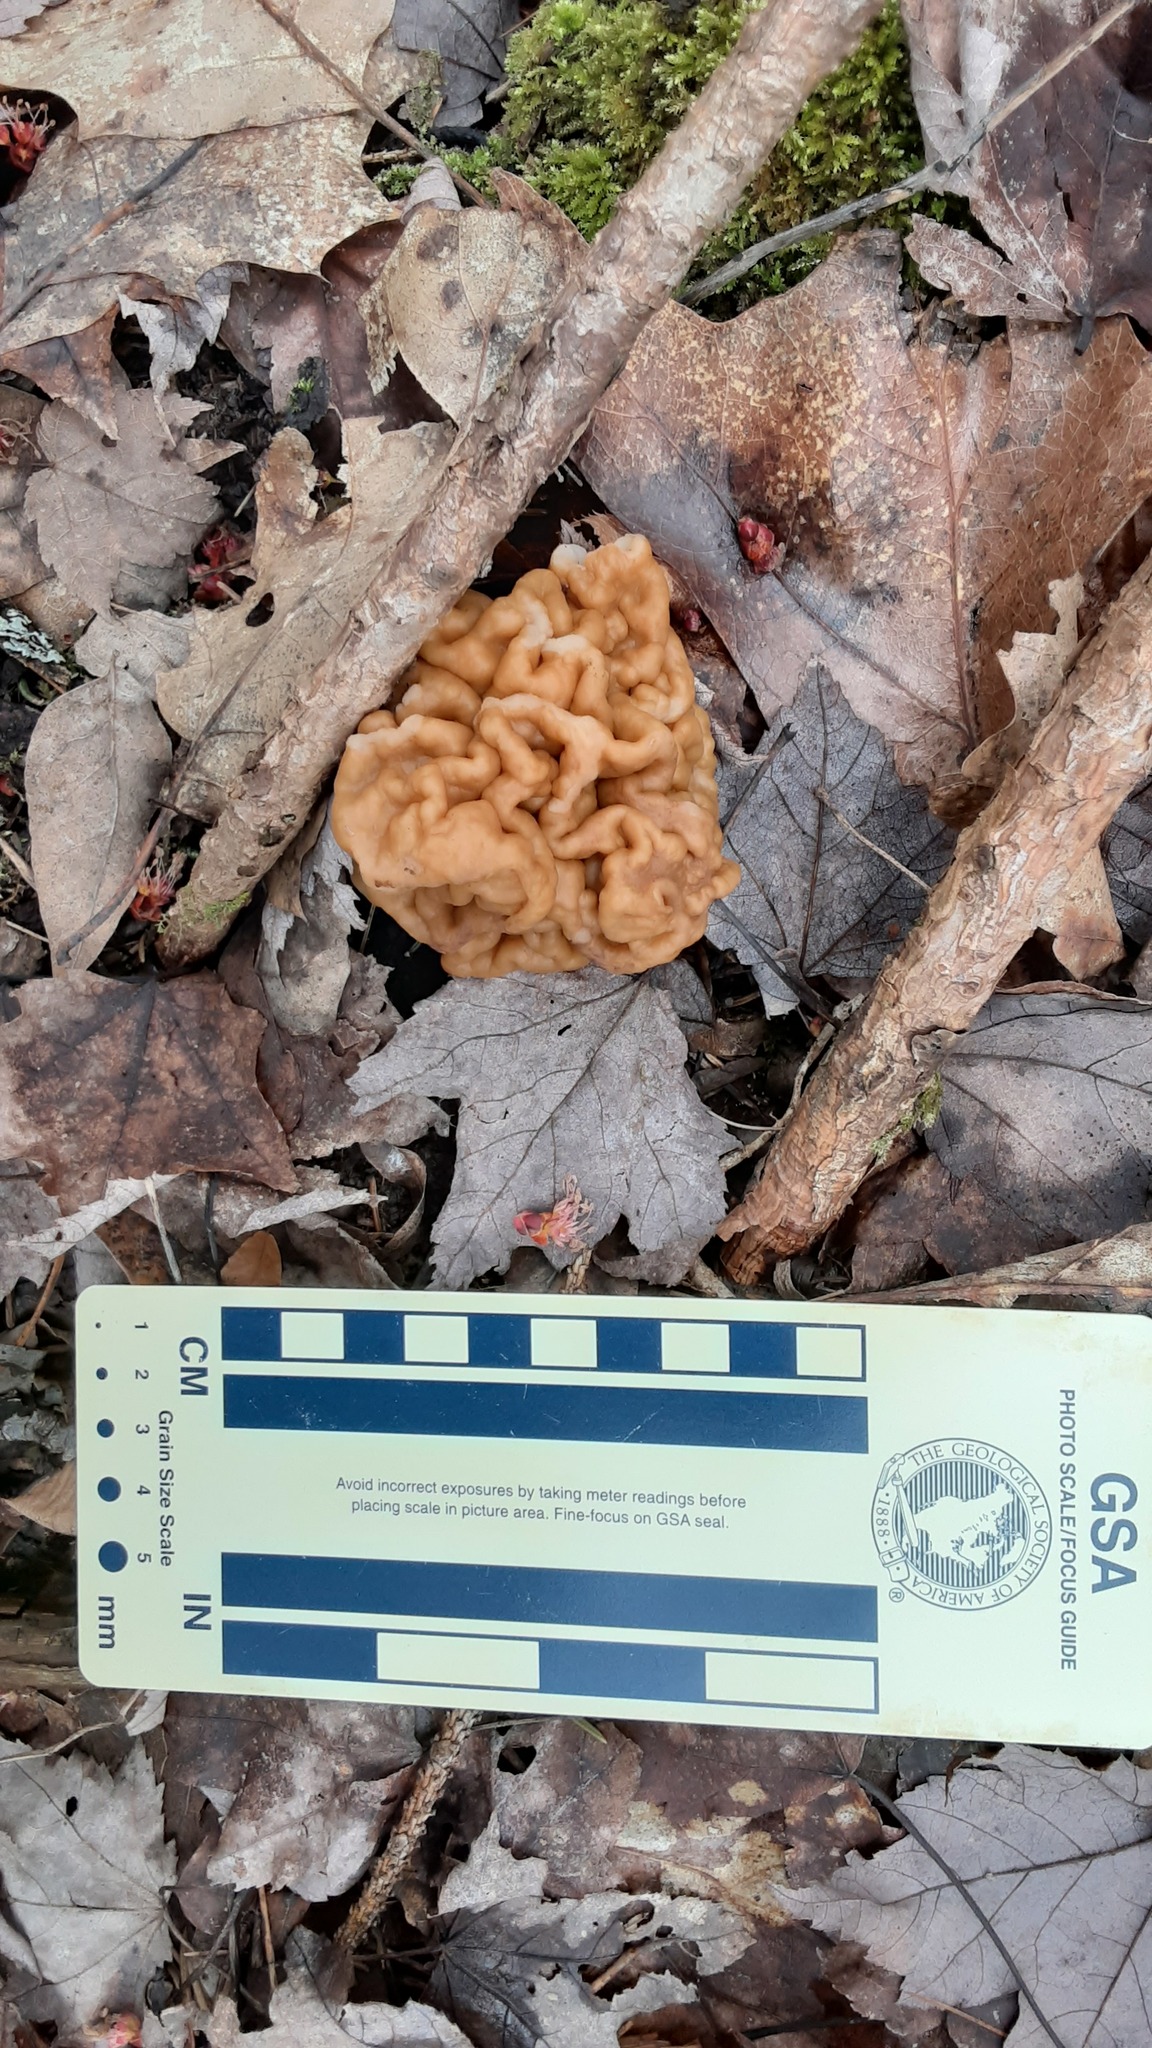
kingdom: Fungi
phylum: Ascomycota
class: Pezizomycetes
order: Pezizales
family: Discinaceae
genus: Gyromitra
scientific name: Gyromitra korfii
